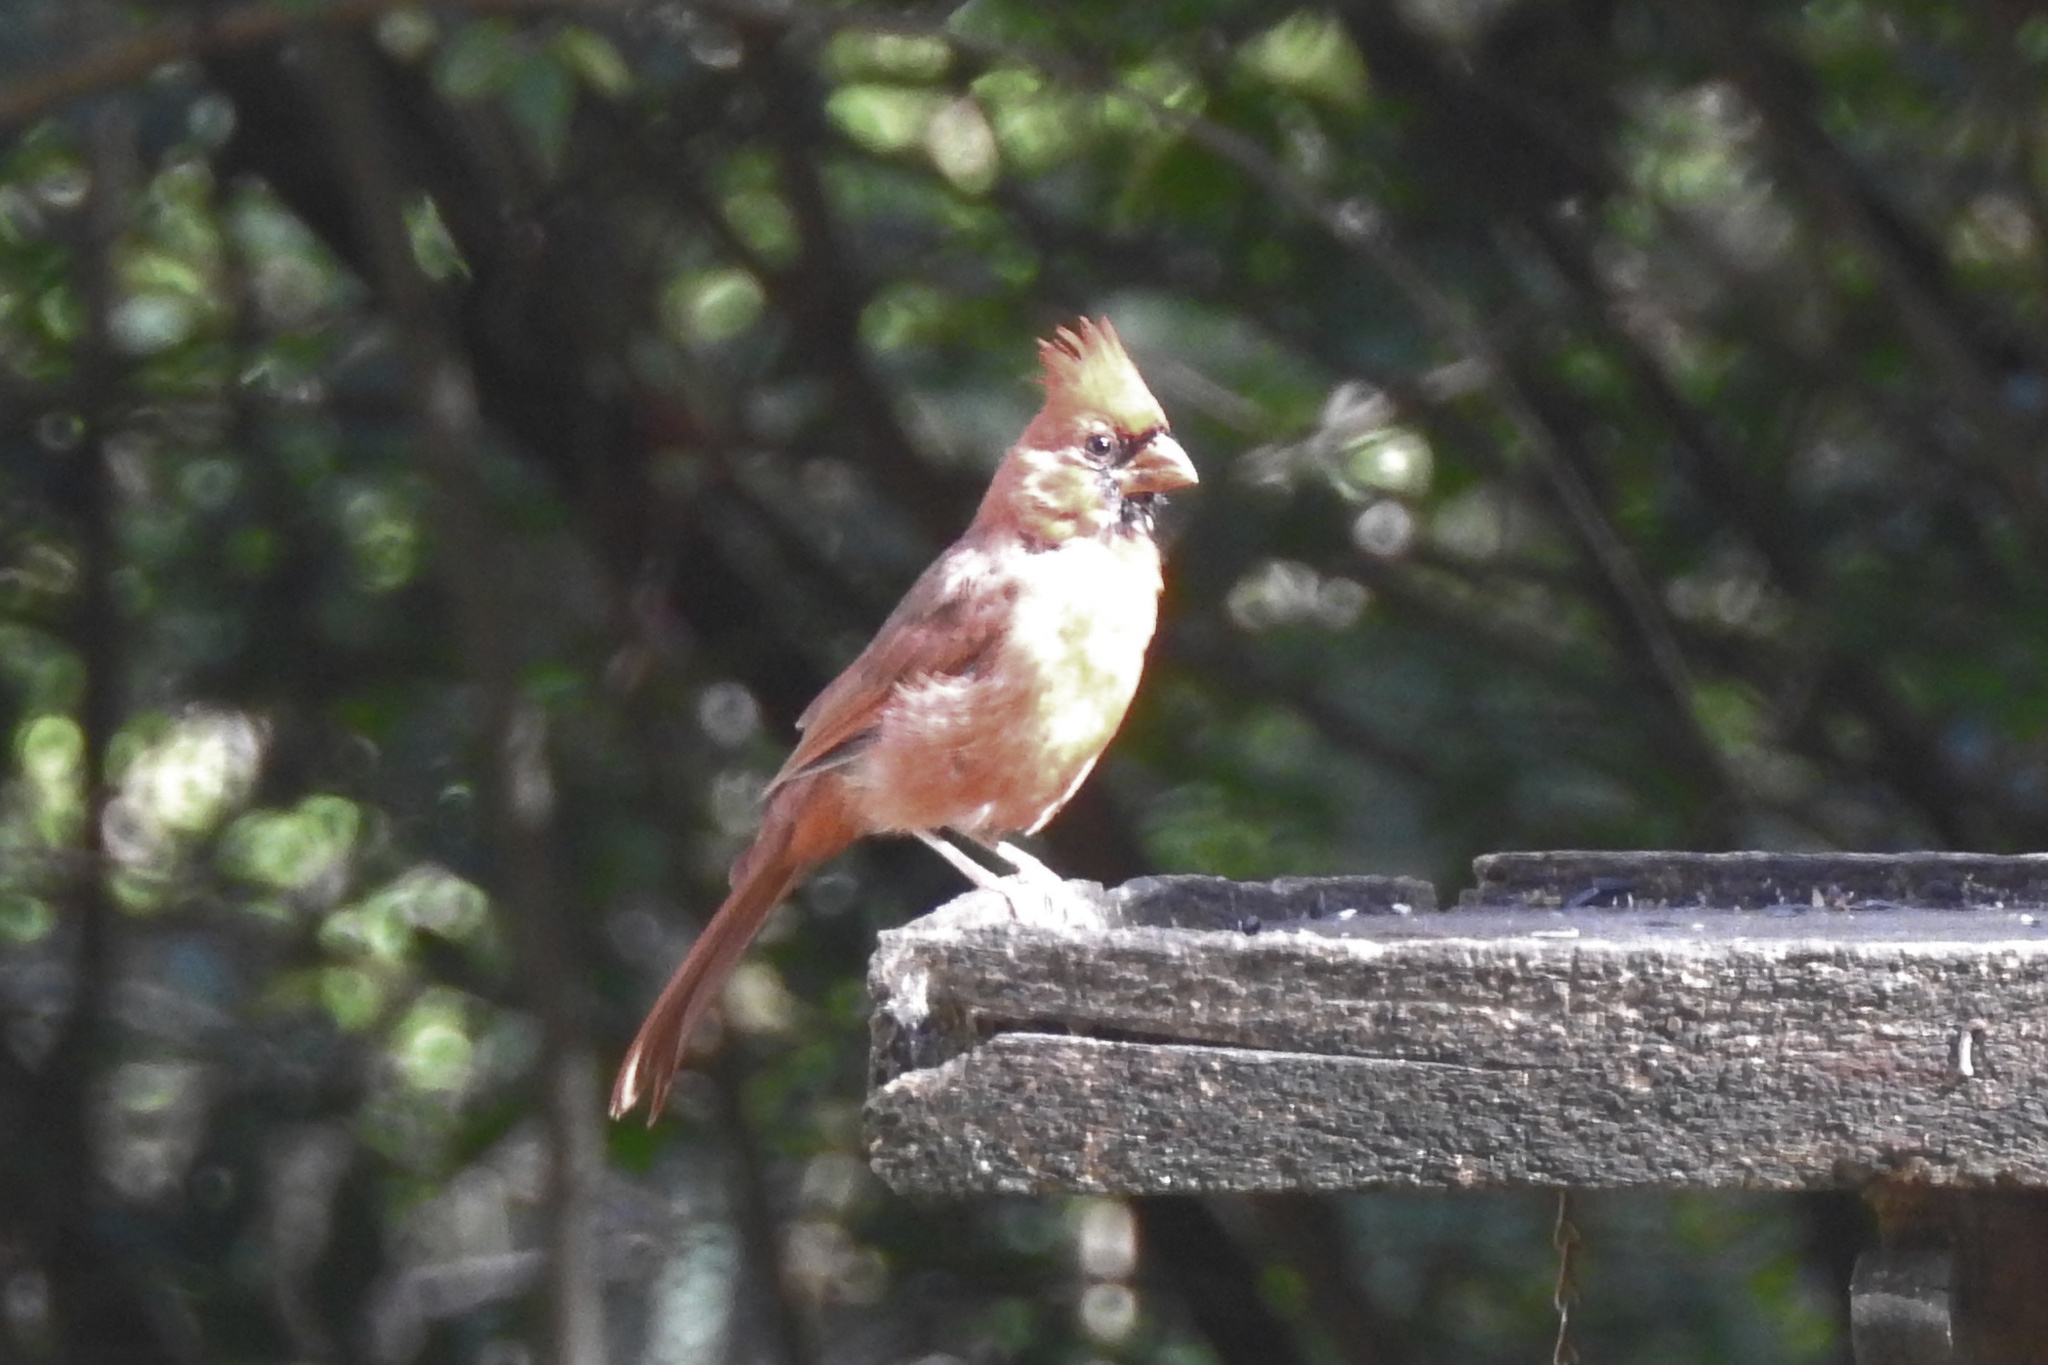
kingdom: Animalia
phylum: Chordata
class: Aves
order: Passeriformes
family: Cardinalidae
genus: Cardinalis
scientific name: Cardinalis cardinalis
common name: Northern cardinal
